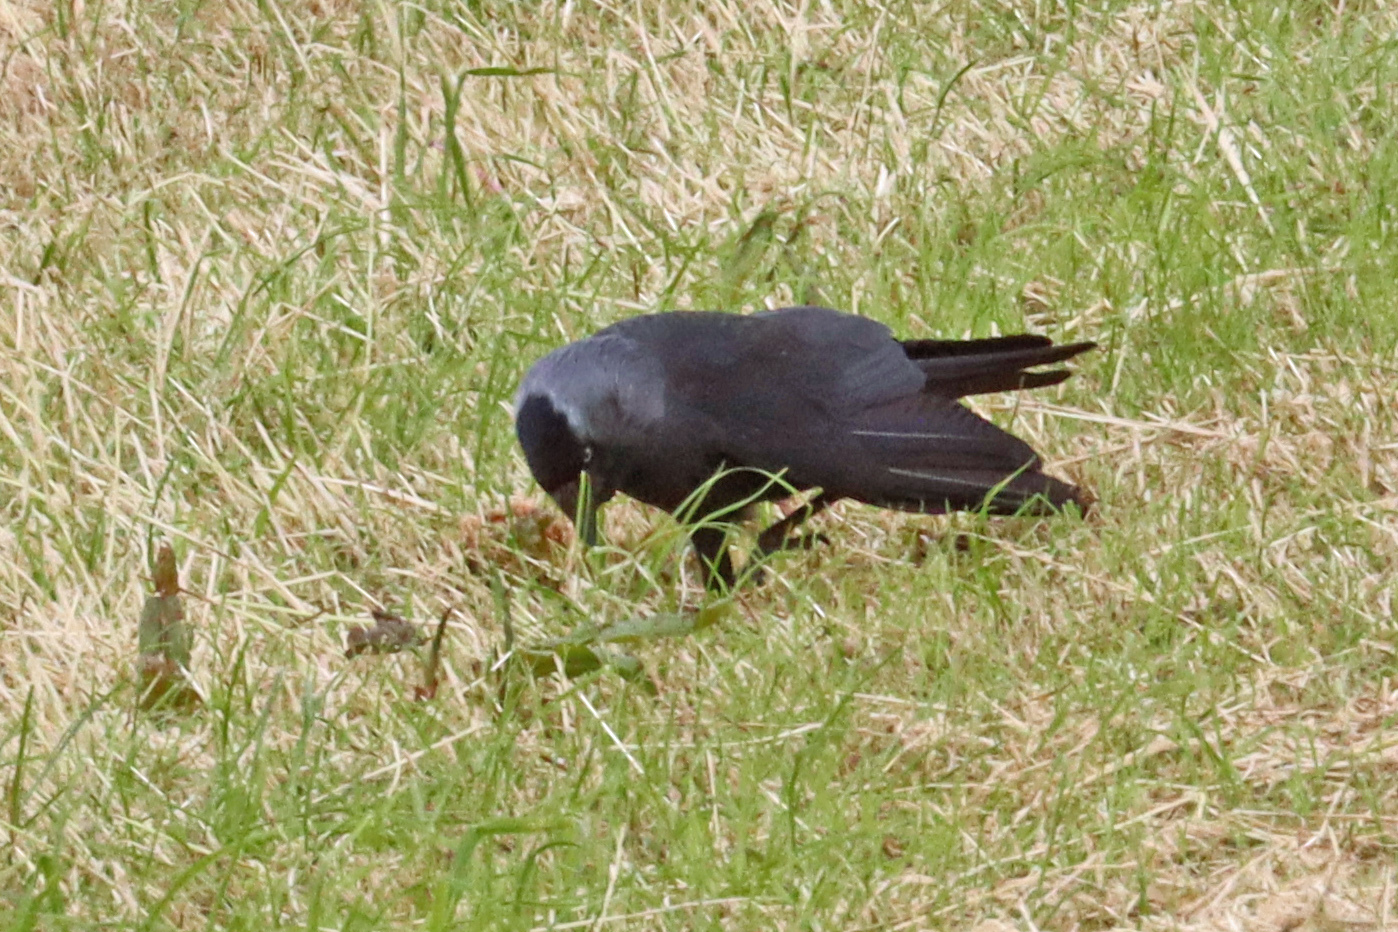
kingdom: Animalia
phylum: Chordata
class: Aves
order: Passeriformes
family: Corvidae
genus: Coloeus
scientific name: Coloeus monedula
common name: Western jackdaw
